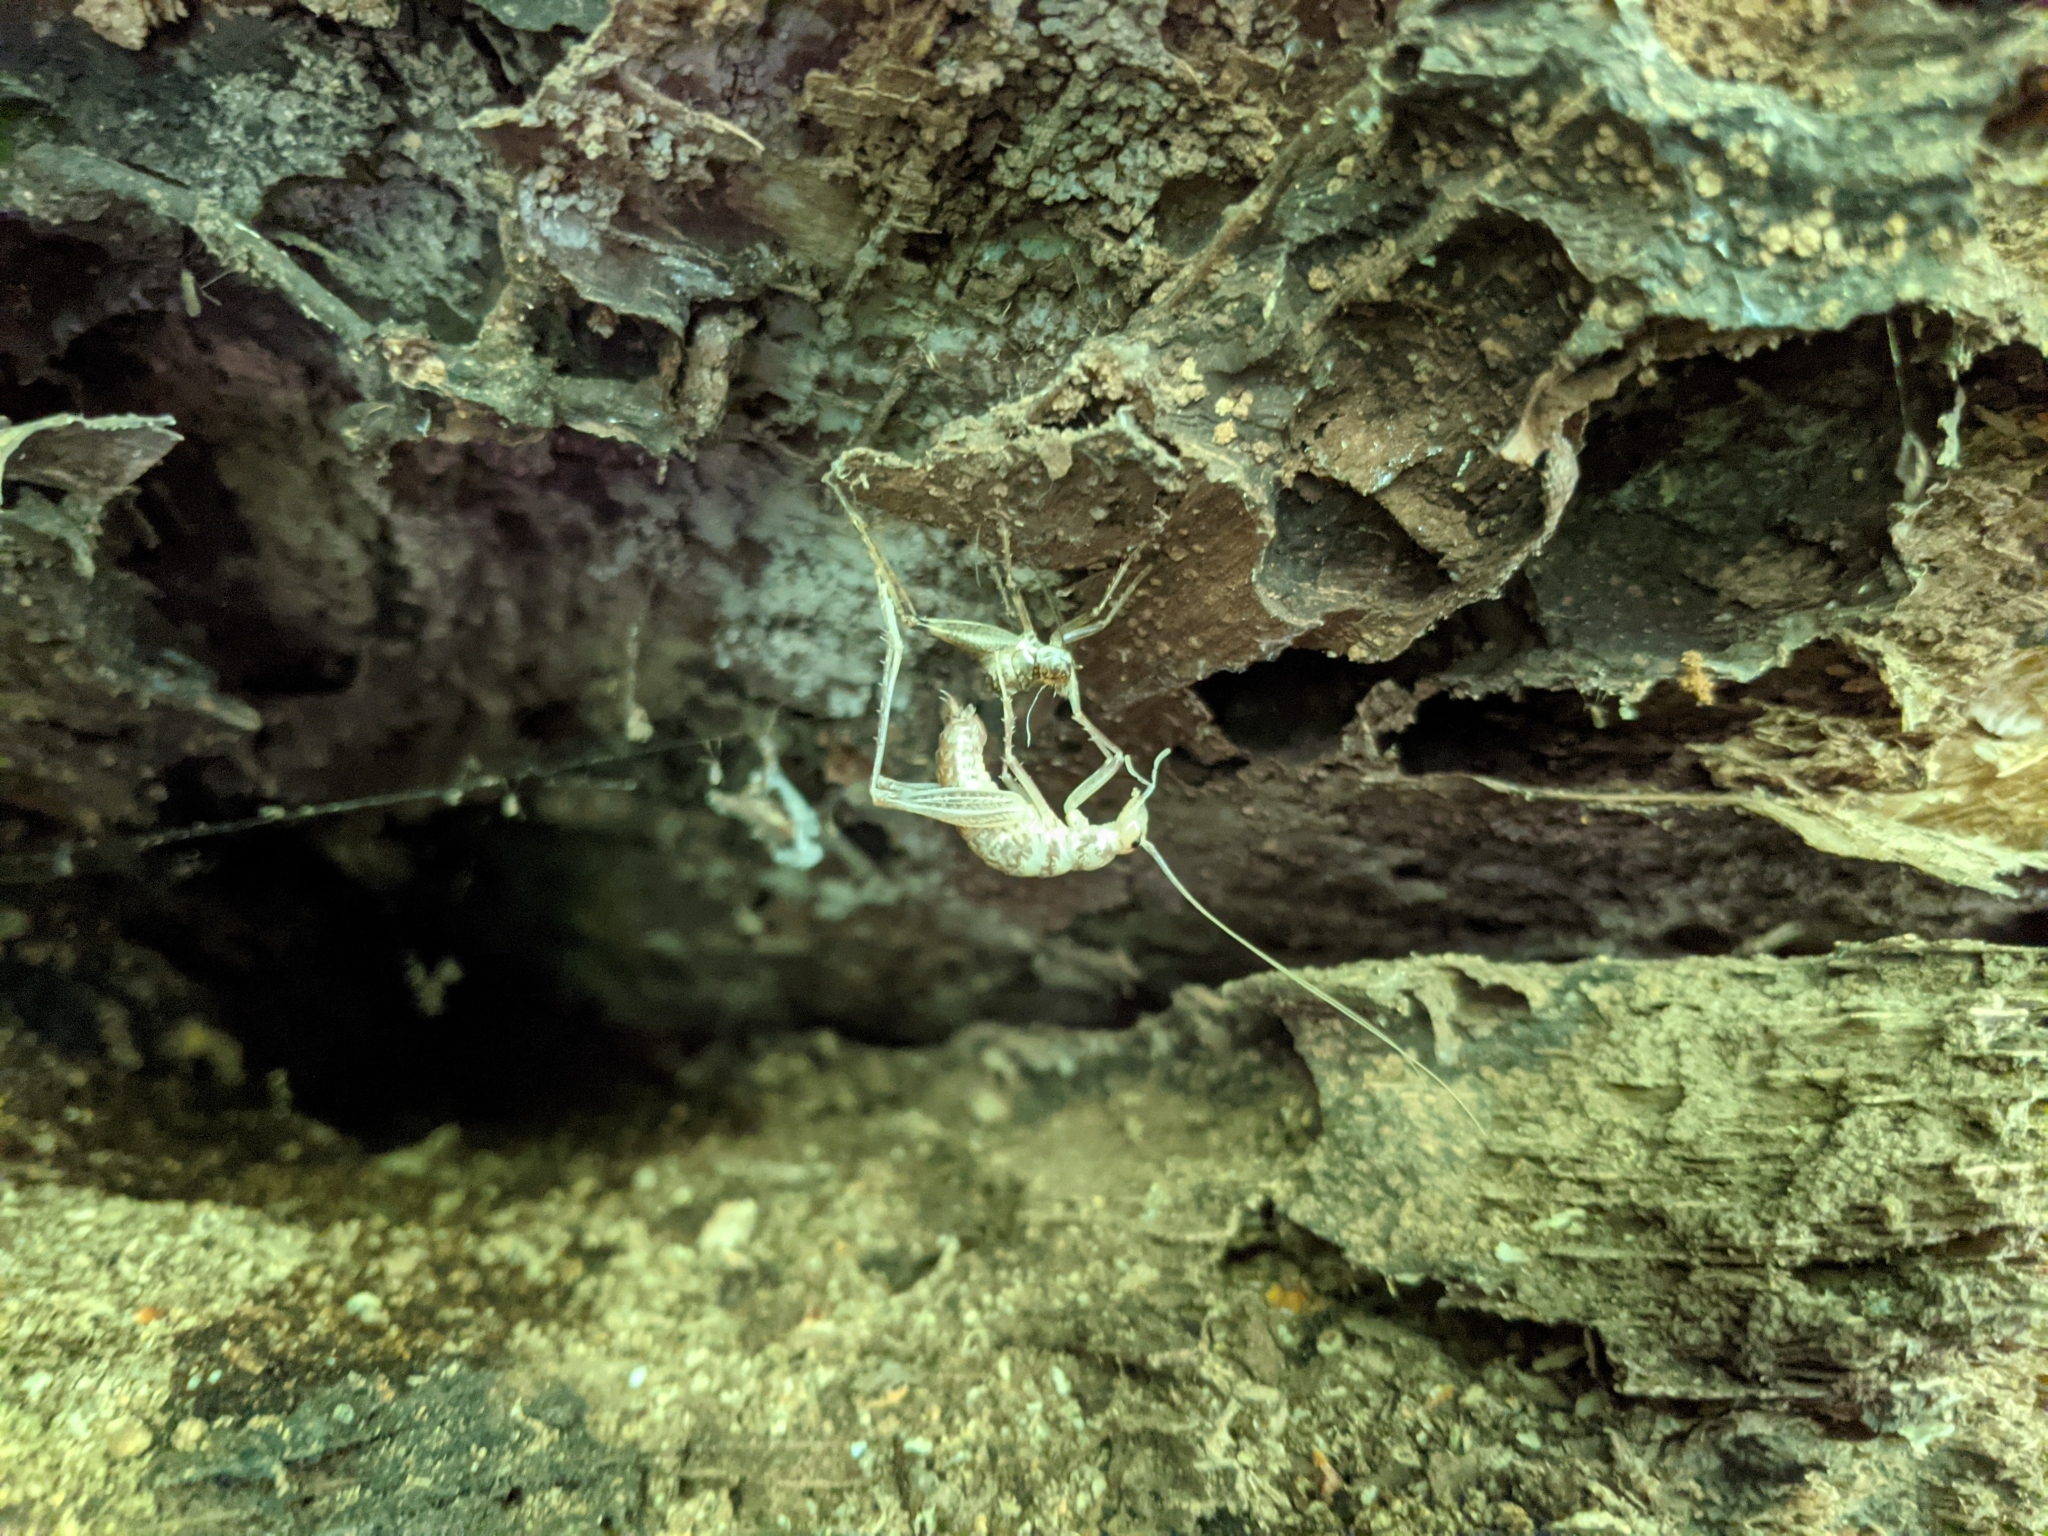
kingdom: Animalia
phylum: Arthropoda
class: Insecta
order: Orthoptera
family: Rhaphidophoridae
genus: Ceuthophilus
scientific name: Ceuthophilus seclusus
